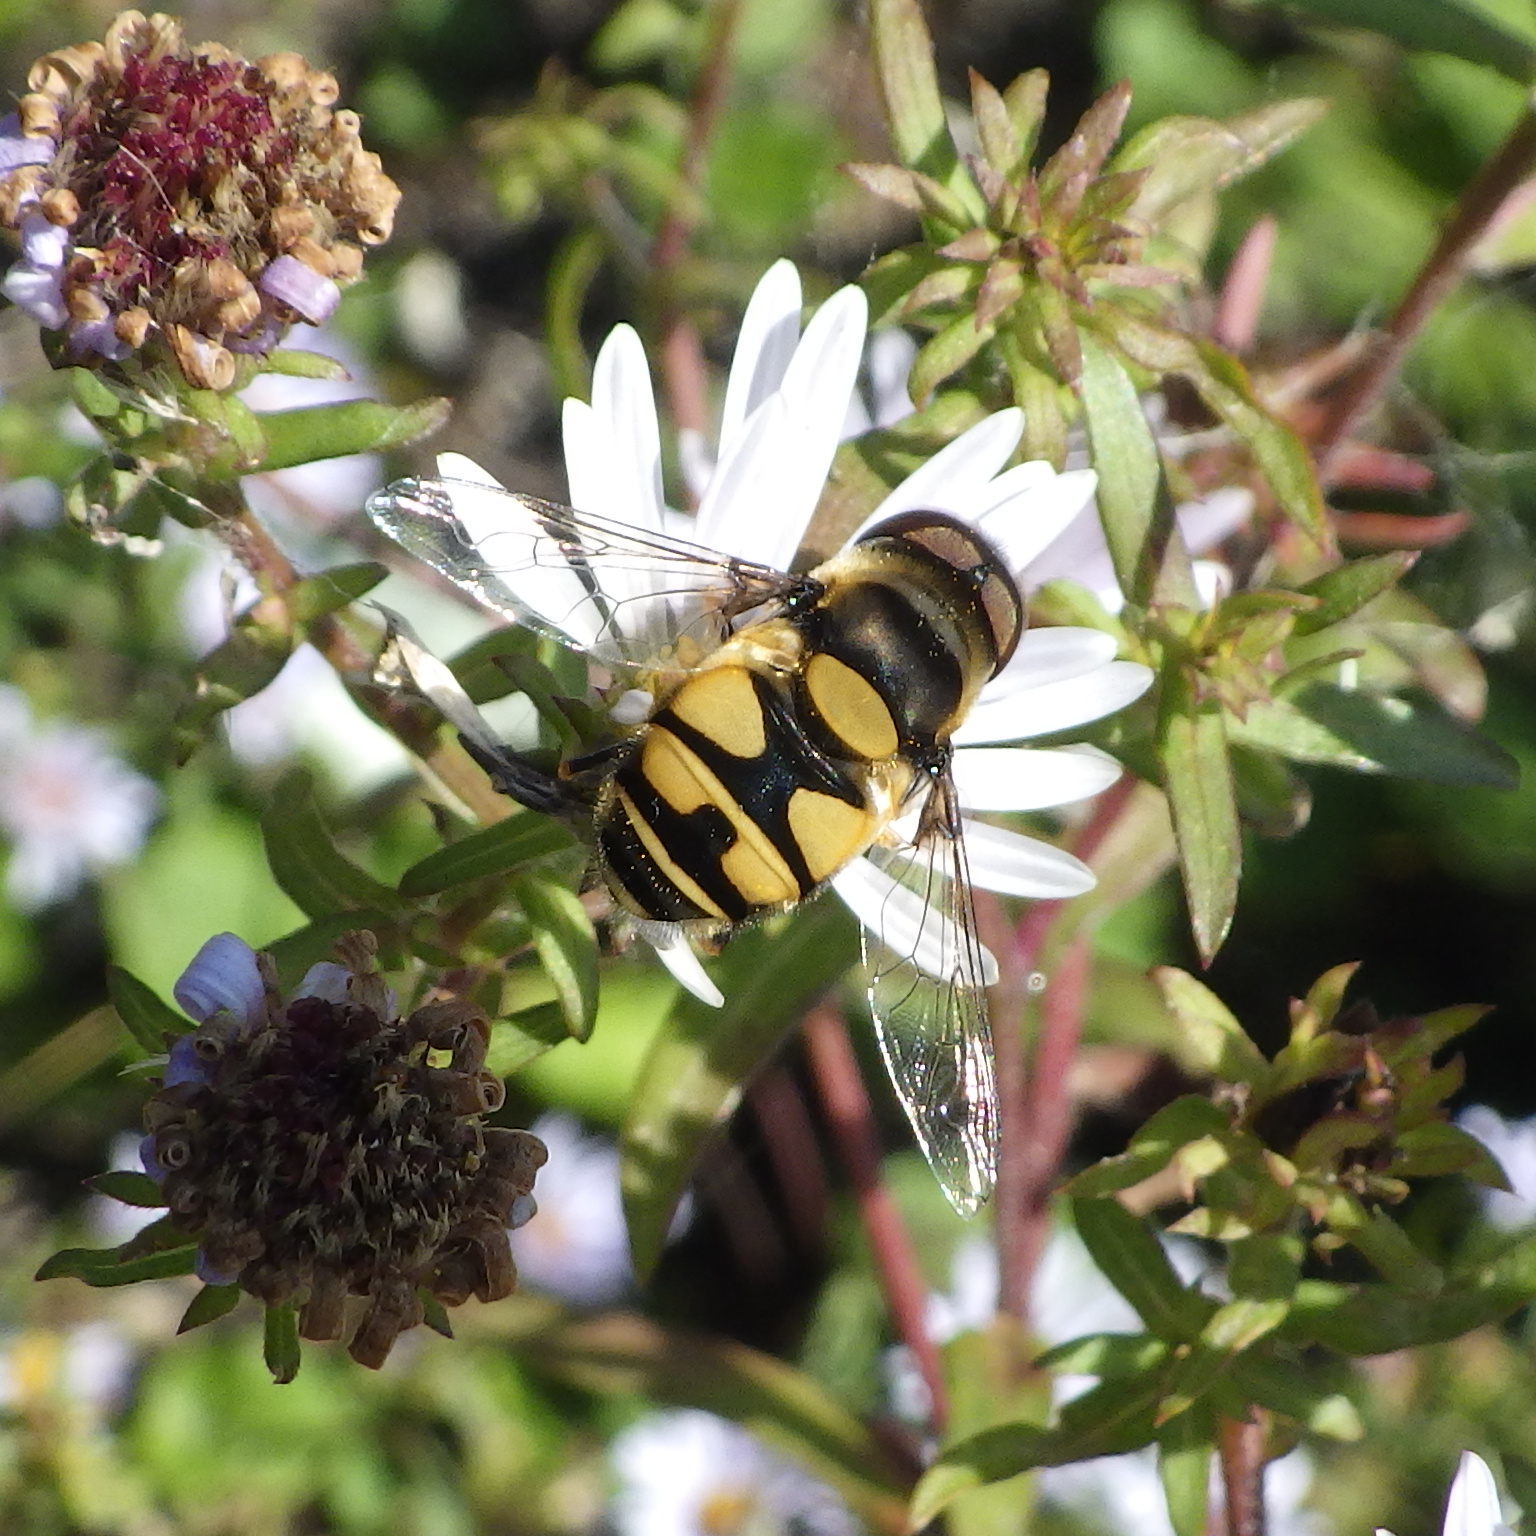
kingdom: Animalia
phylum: Arthropoda
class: Insecta
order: Diptera
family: Syrphidae
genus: Eristalis
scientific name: Eristalis transversa
